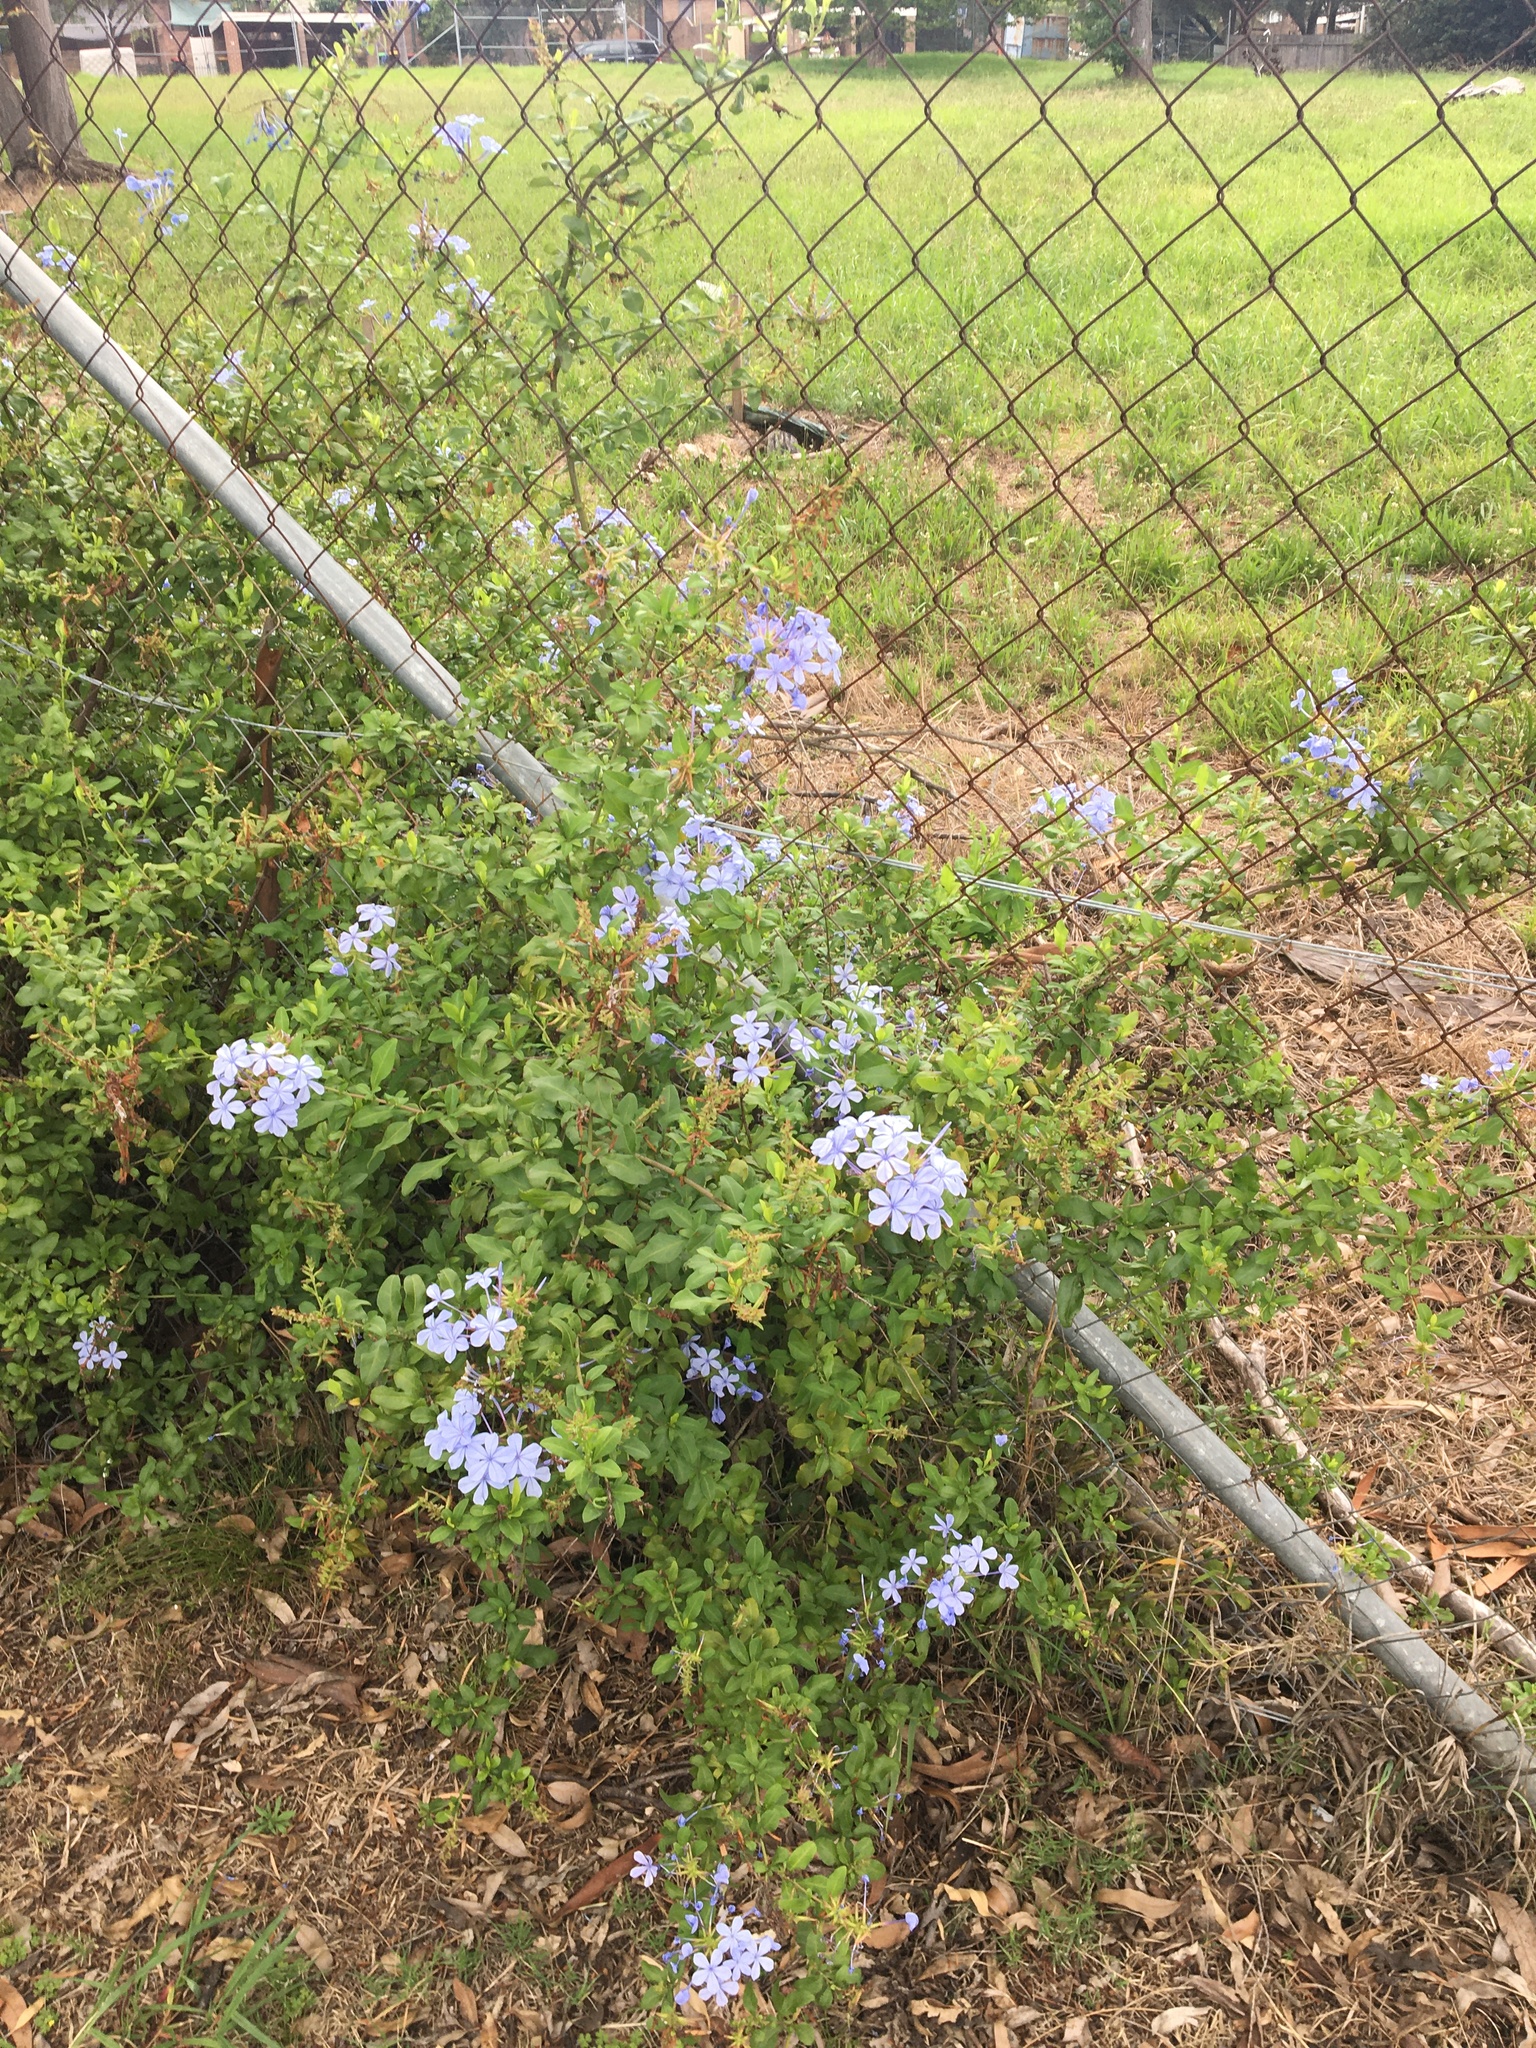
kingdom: Plantae
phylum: Tracheophyta
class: Magnoliopsida
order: Caryophyllales
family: Plumbaginaceae
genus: Plumbago
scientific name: Plumbago auriculata
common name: Cape leadwort
